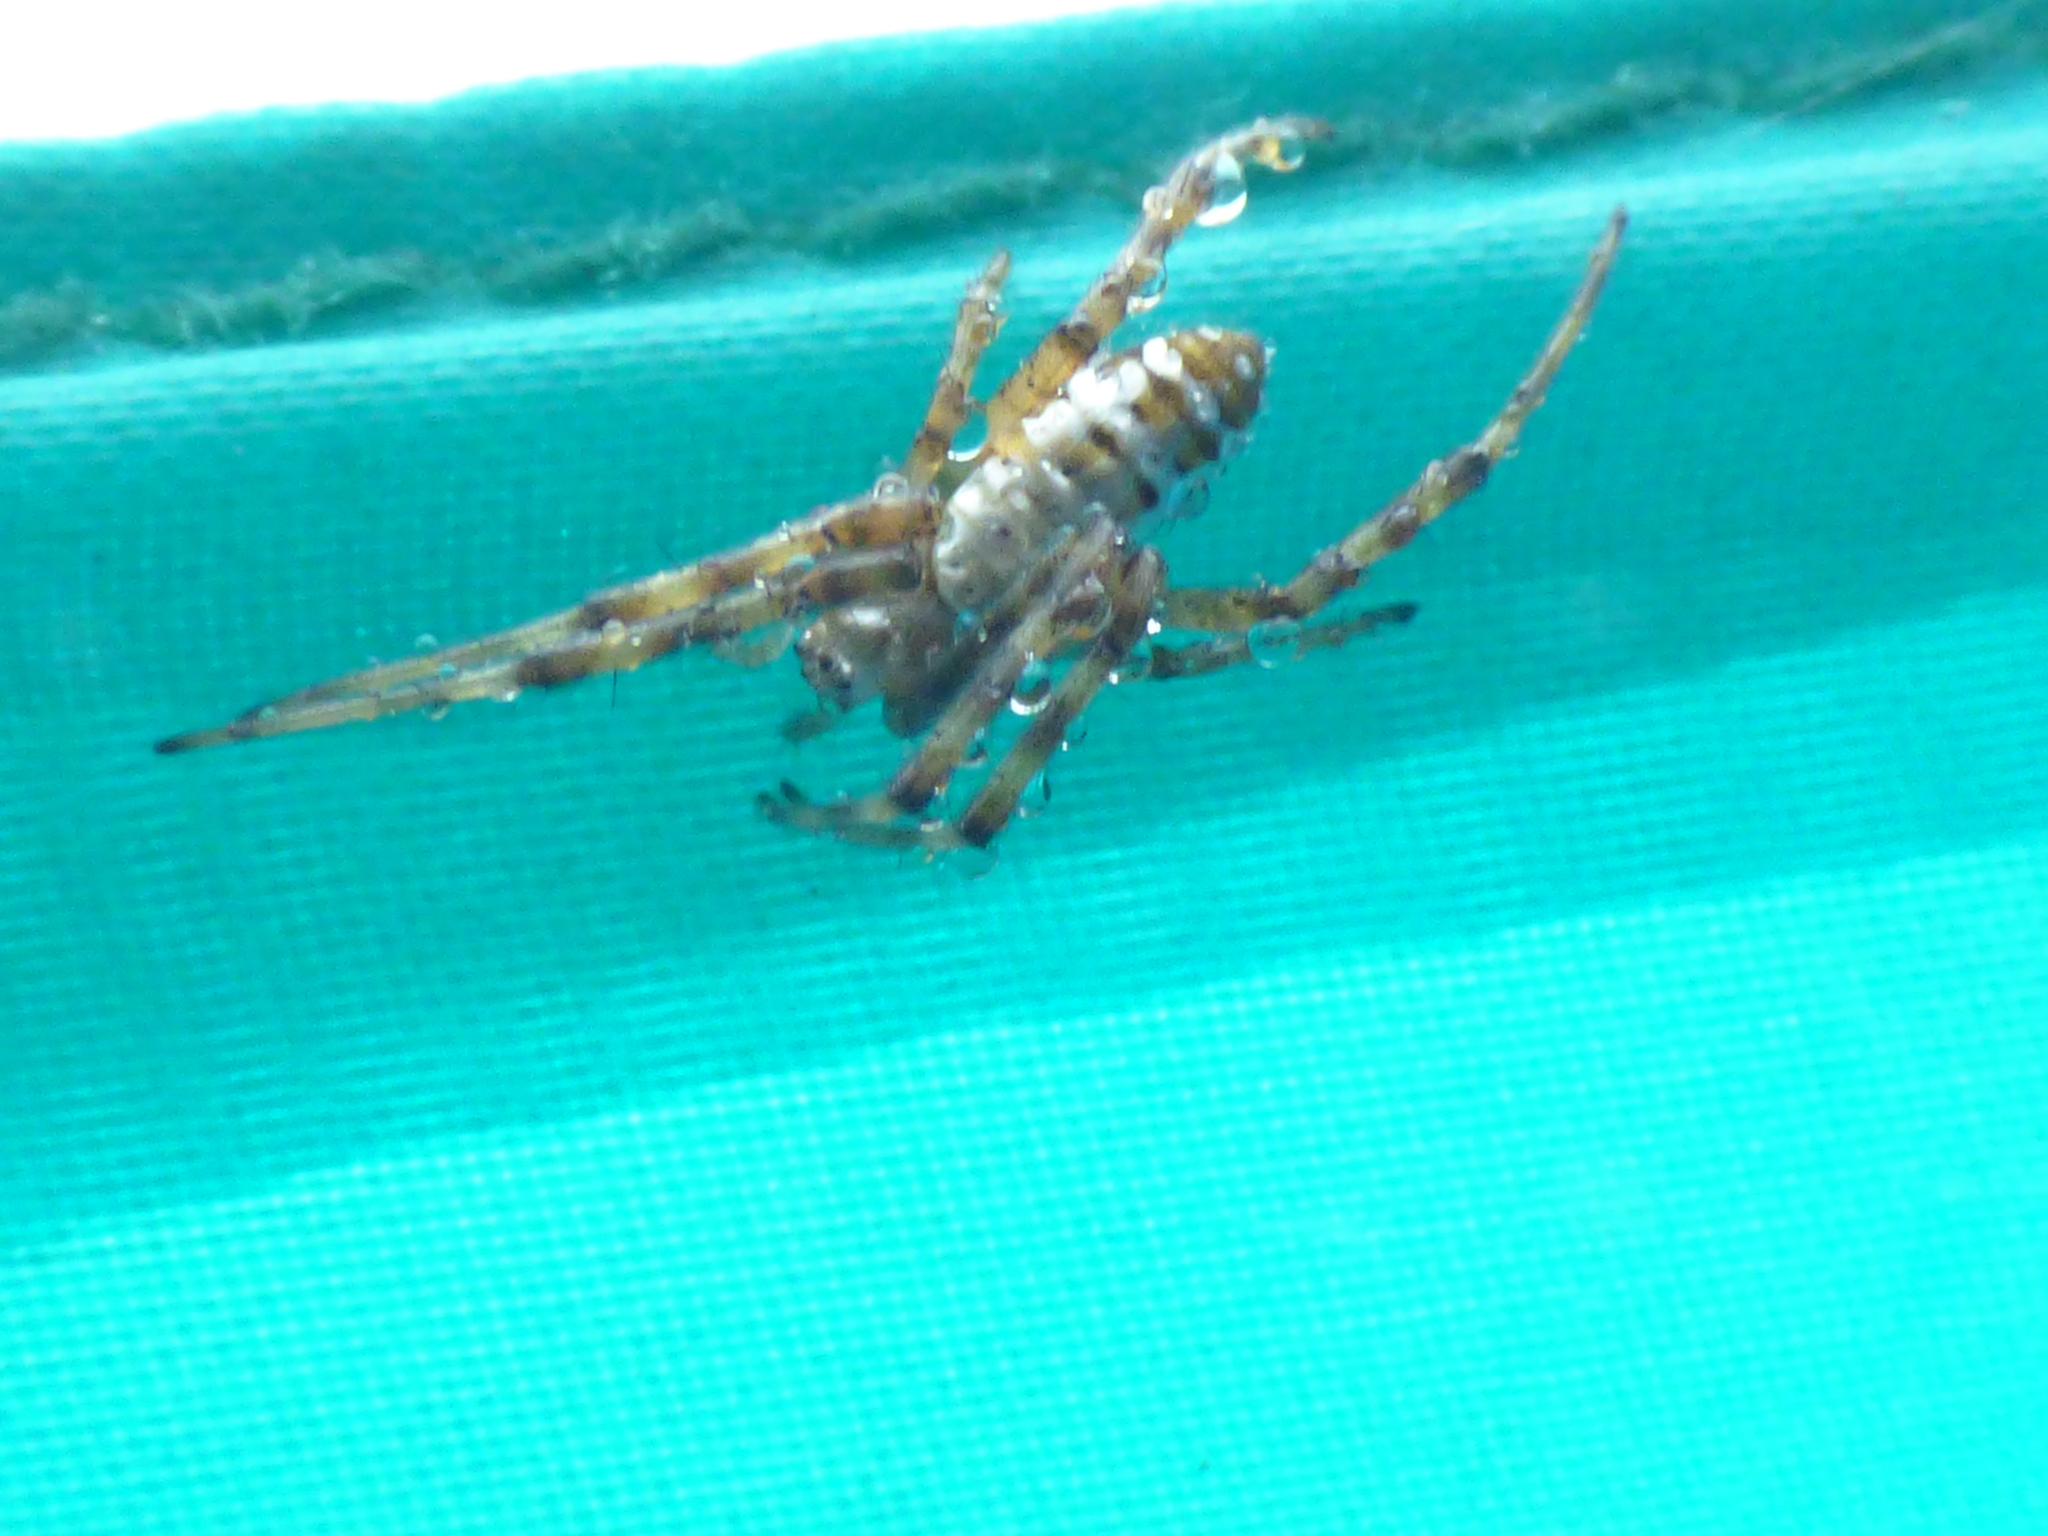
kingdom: Animalia
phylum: Arthropoda
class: Arachnida
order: Araneae
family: Araneidae
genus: Argiope
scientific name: Argiope trifasciata
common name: Banded garden spider
